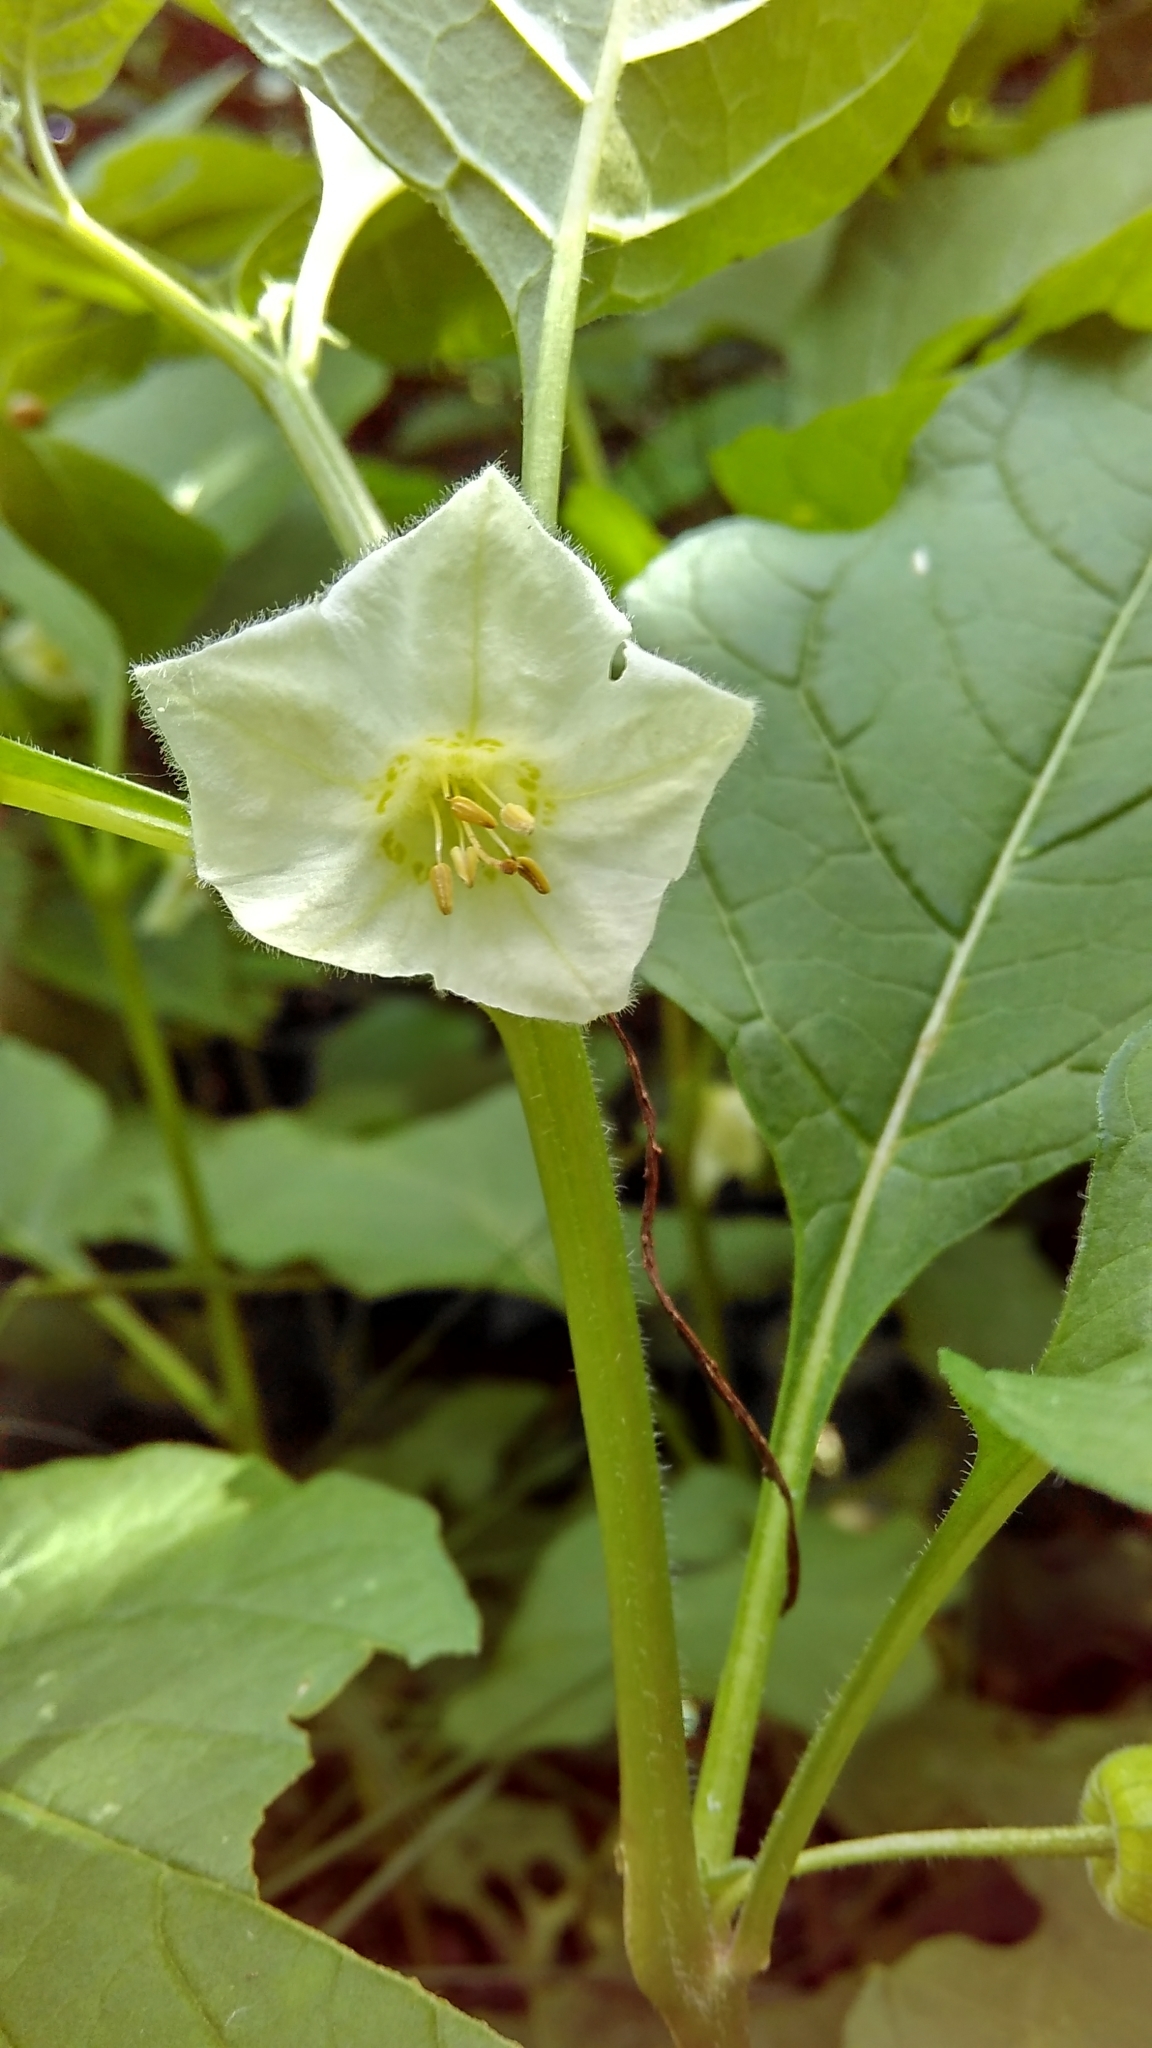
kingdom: Plantae
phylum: Tracheophyta
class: Magnoliopsida
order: Solanales
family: Solanaceae
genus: Alkekengi
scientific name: Alkekengi officinarum
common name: Japanese-lantern
